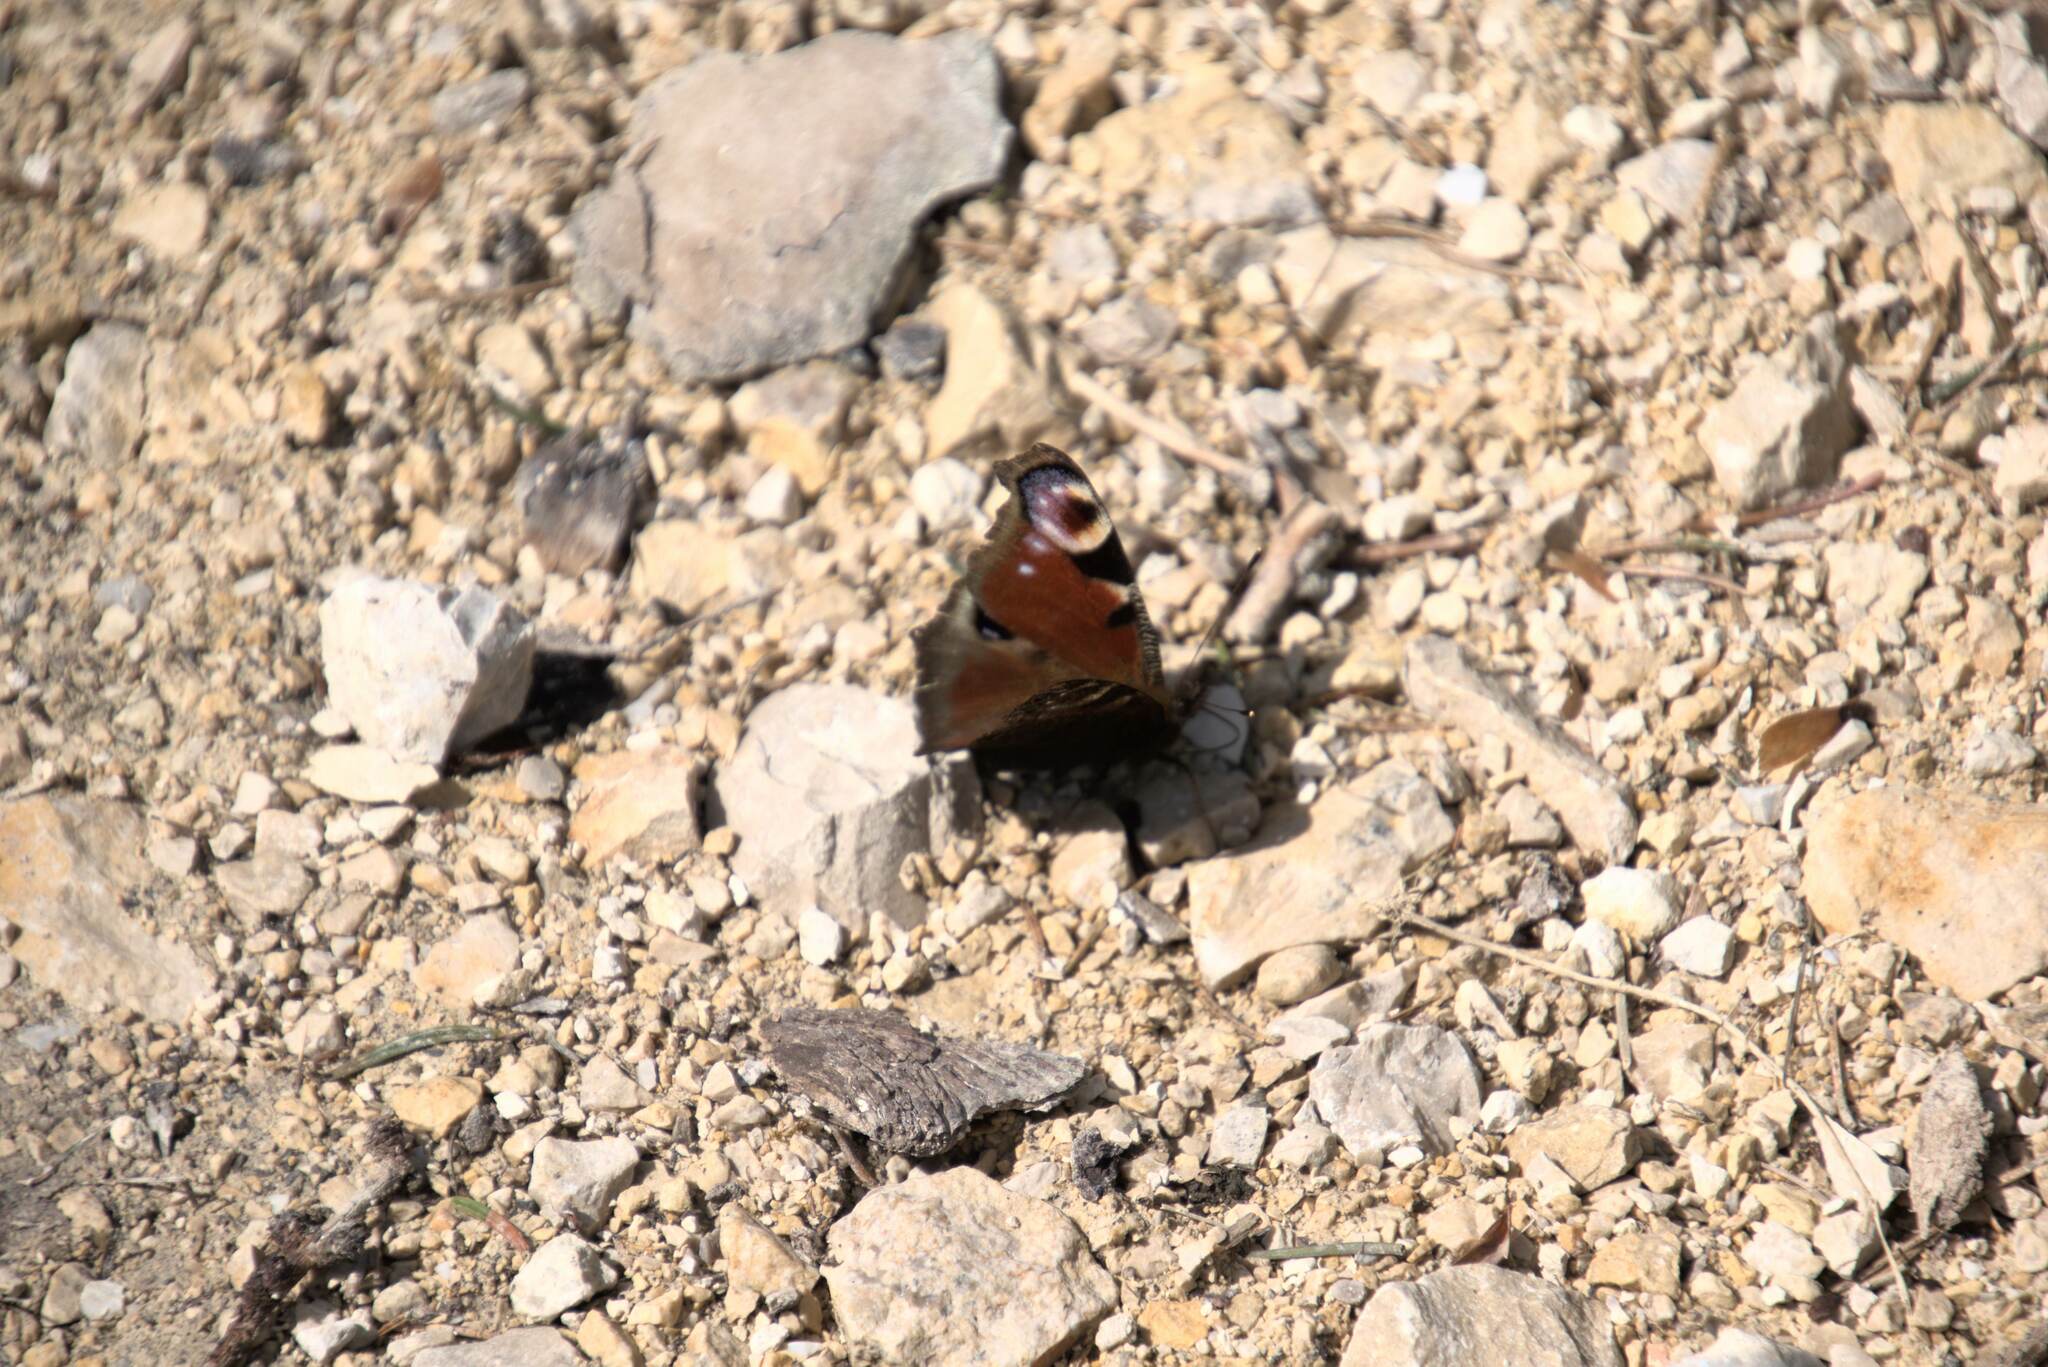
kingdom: Animalia
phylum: Arthropoda
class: Insecta
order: Lepidoptera
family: Nymphalidae
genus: Aglais
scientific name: Aglais io
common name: Peacock
